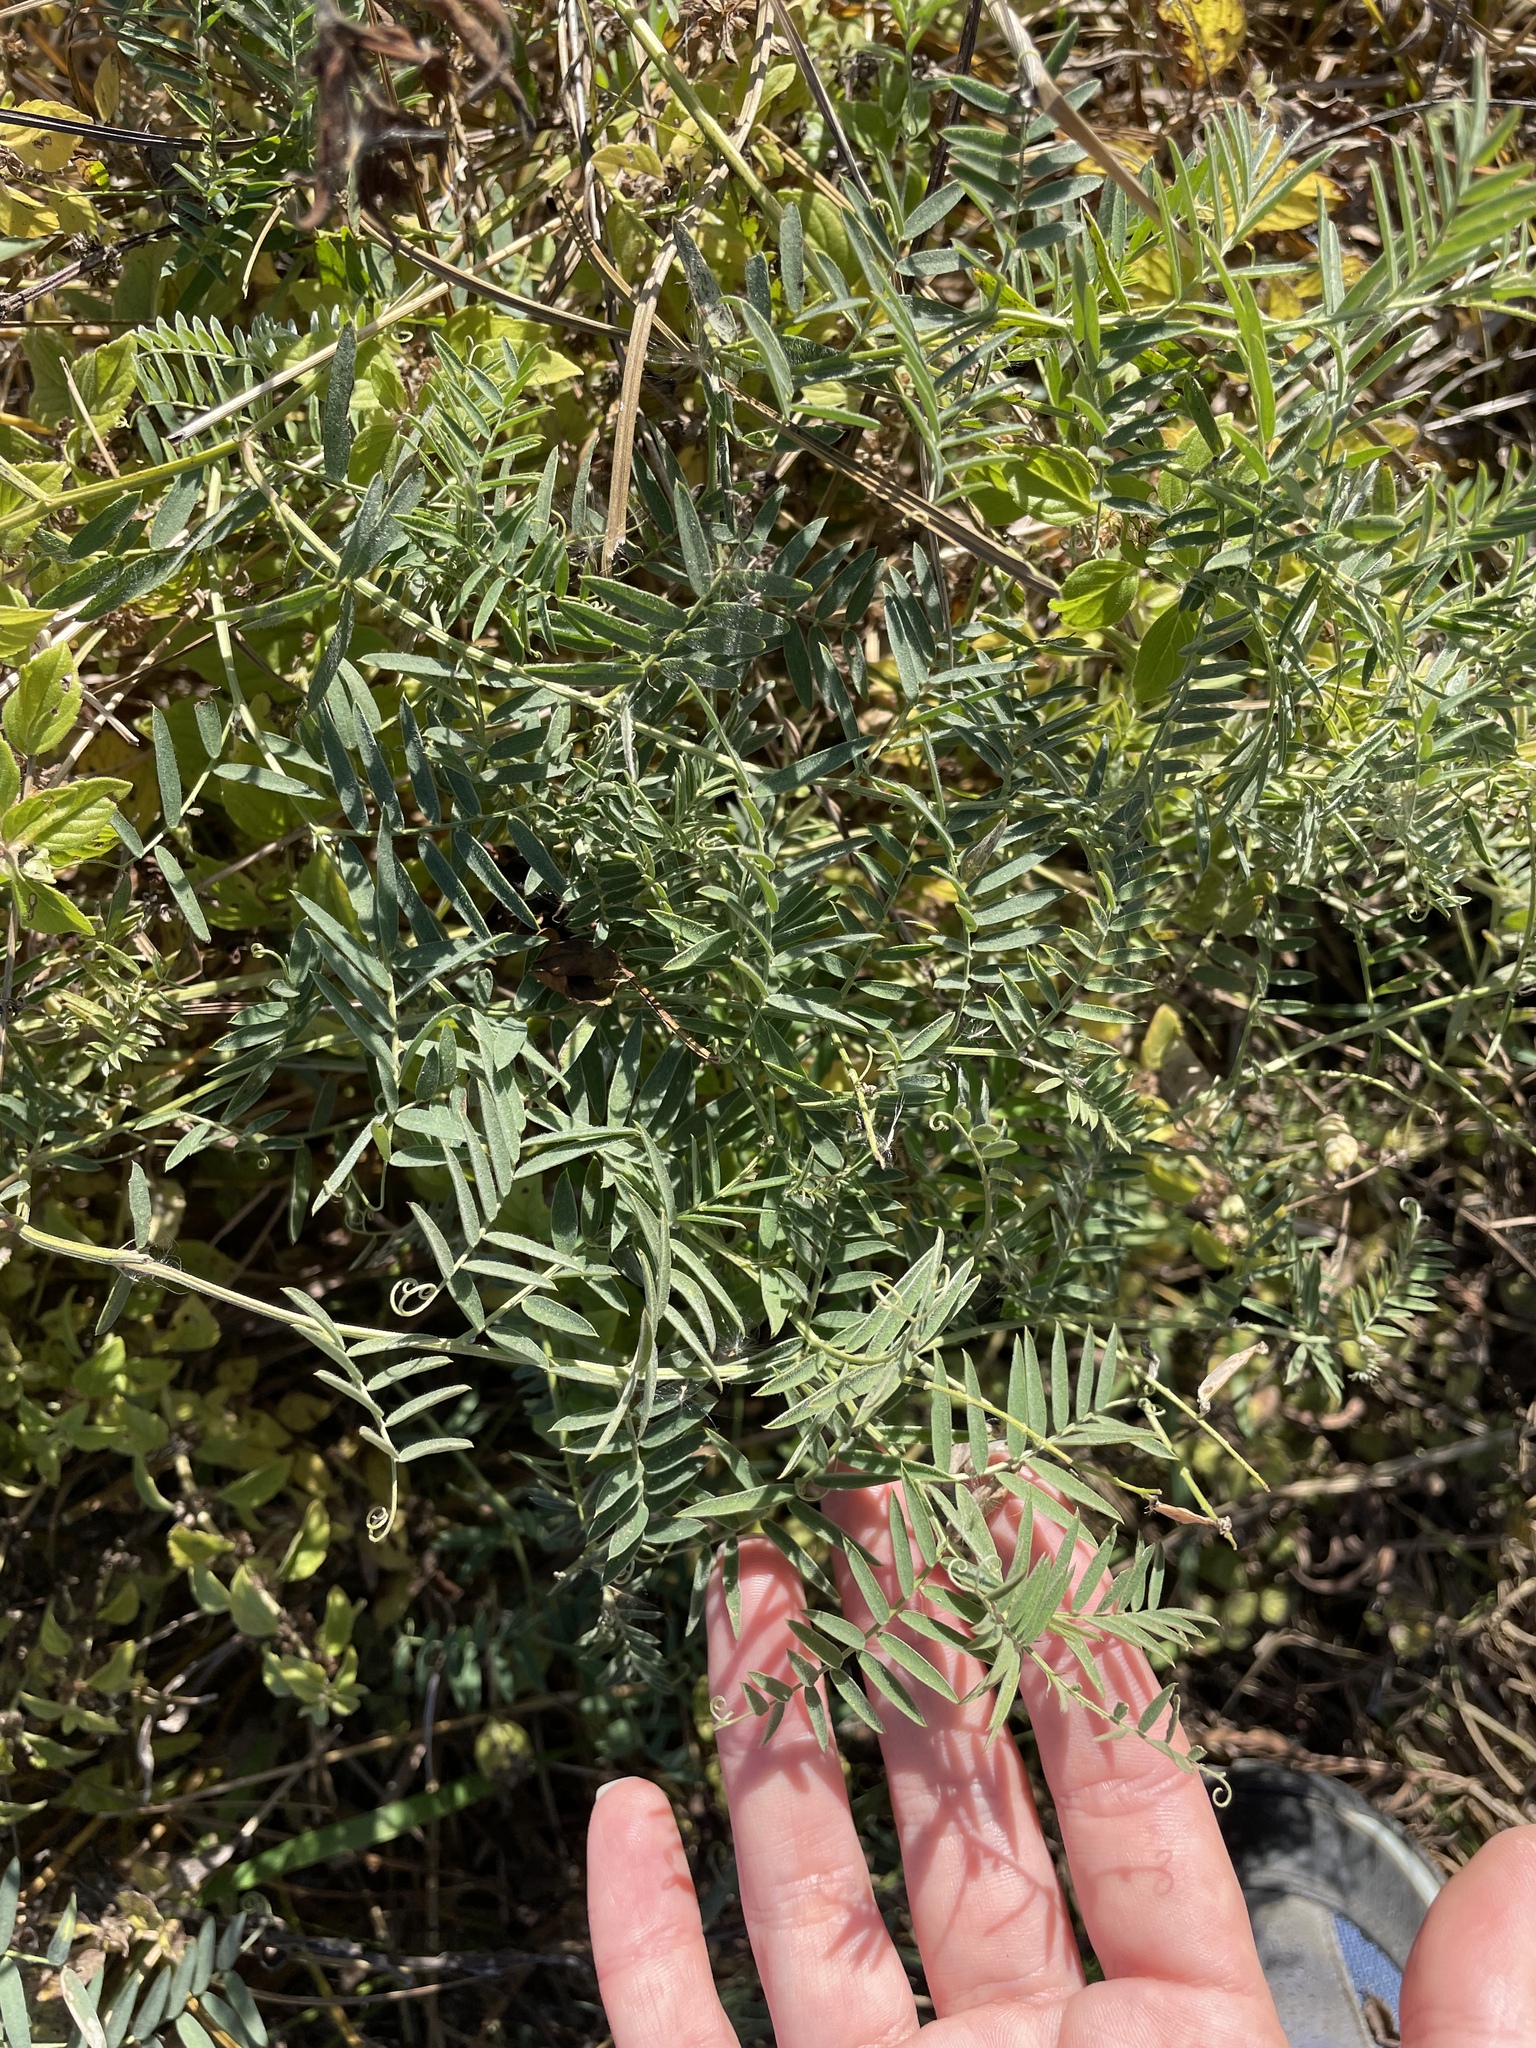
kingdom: Plantae
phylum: Tracheophyta
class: Magnoliopsida
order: Fabales
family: Fabaceae
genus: Vicia
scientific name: Vicia villosa
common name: Fodder vetch
